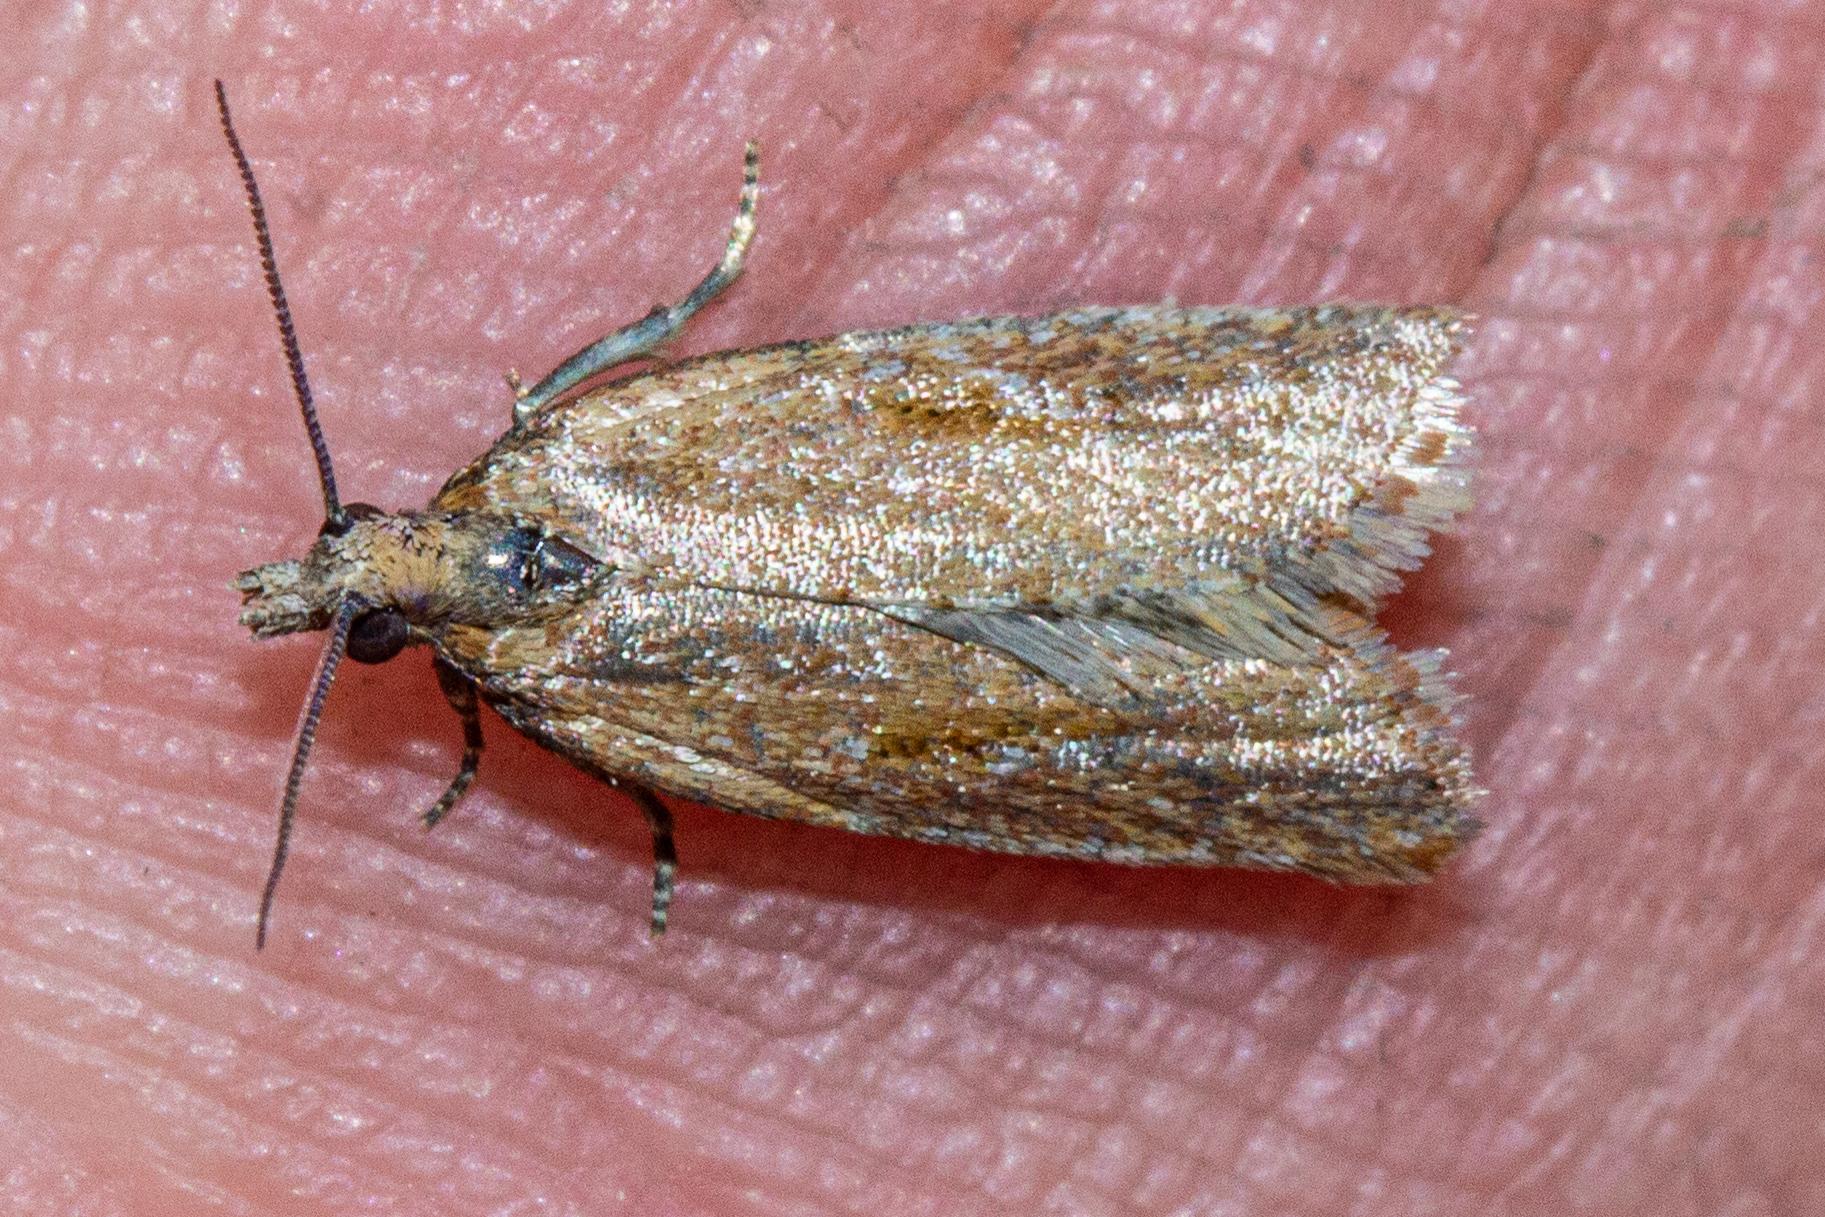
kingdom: Animalia
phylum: Arthropoda
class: Insecta
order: Lepidoptera
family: Tortricidae
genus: Capua
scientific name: Capua semiferana
